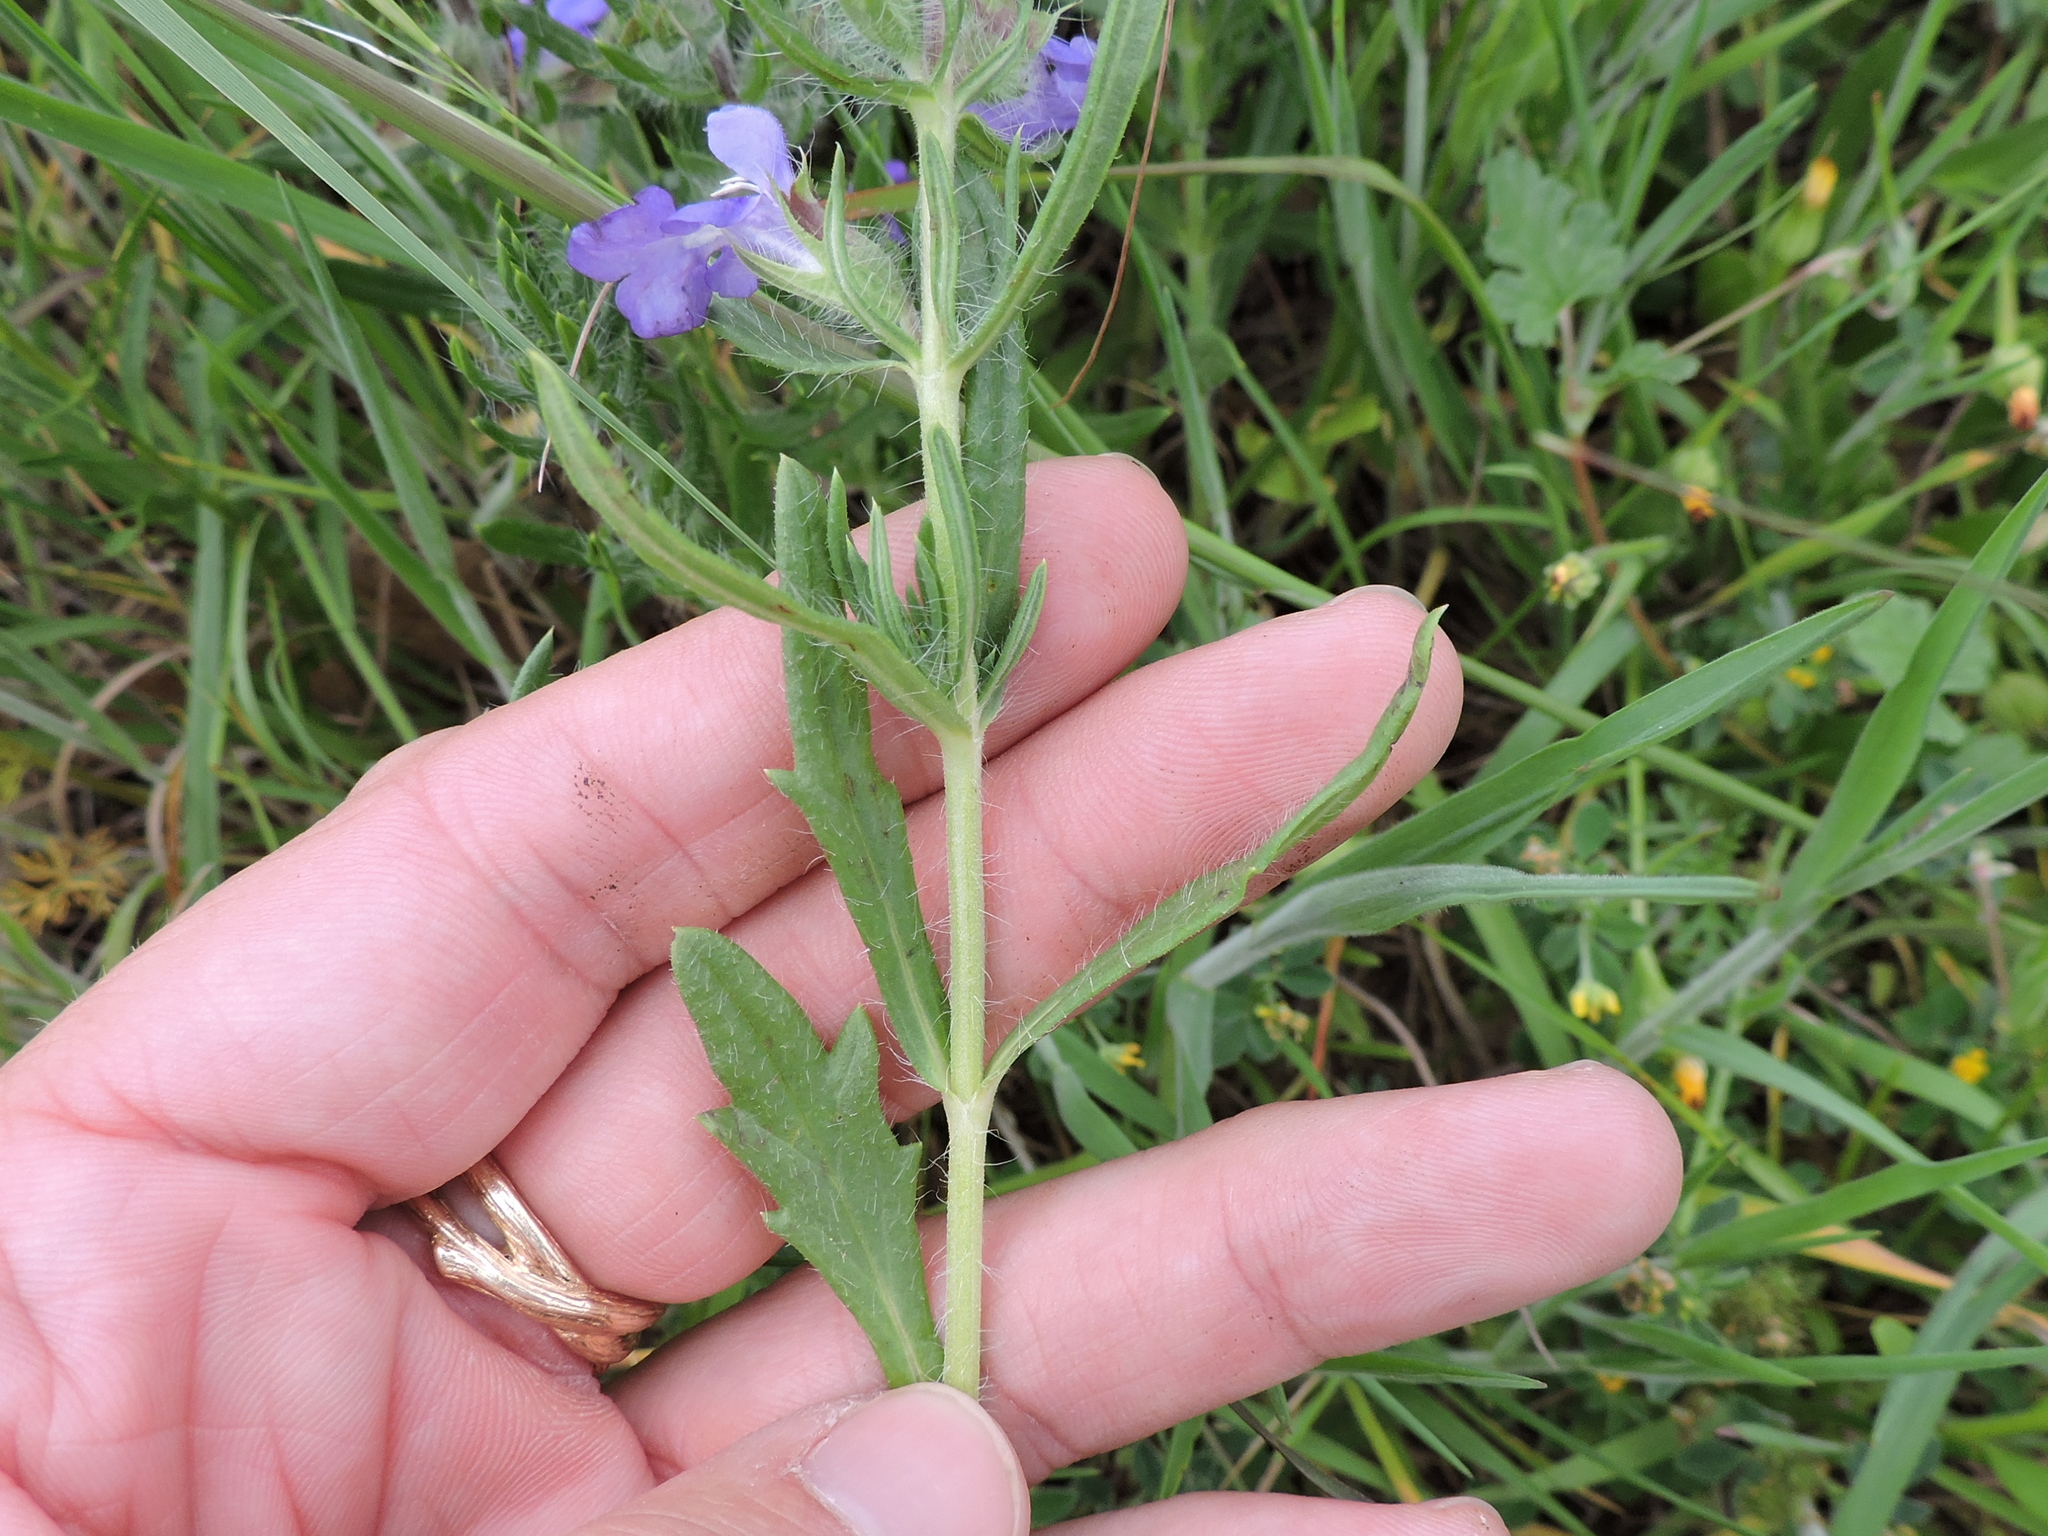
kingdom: Plantae
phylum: Tracheophyta
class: Magnoliopsida
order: Lamiales
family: Lamiaceae
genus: Salvia
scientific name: Salvia texana
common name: Texas sage
